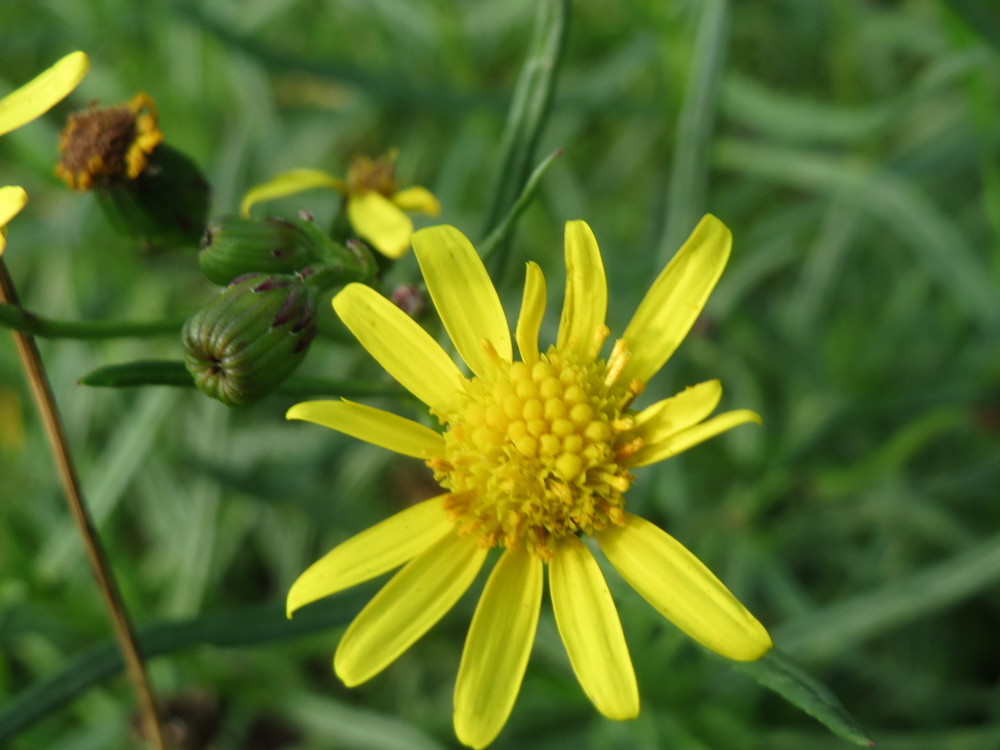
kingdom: Plantae
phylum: Tracheophyta
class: Magnoliopsida
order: Asterales
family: Asteraceae
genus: Senecio
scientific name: Senecio inaequidens
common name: Narrow-leaved ragwort
